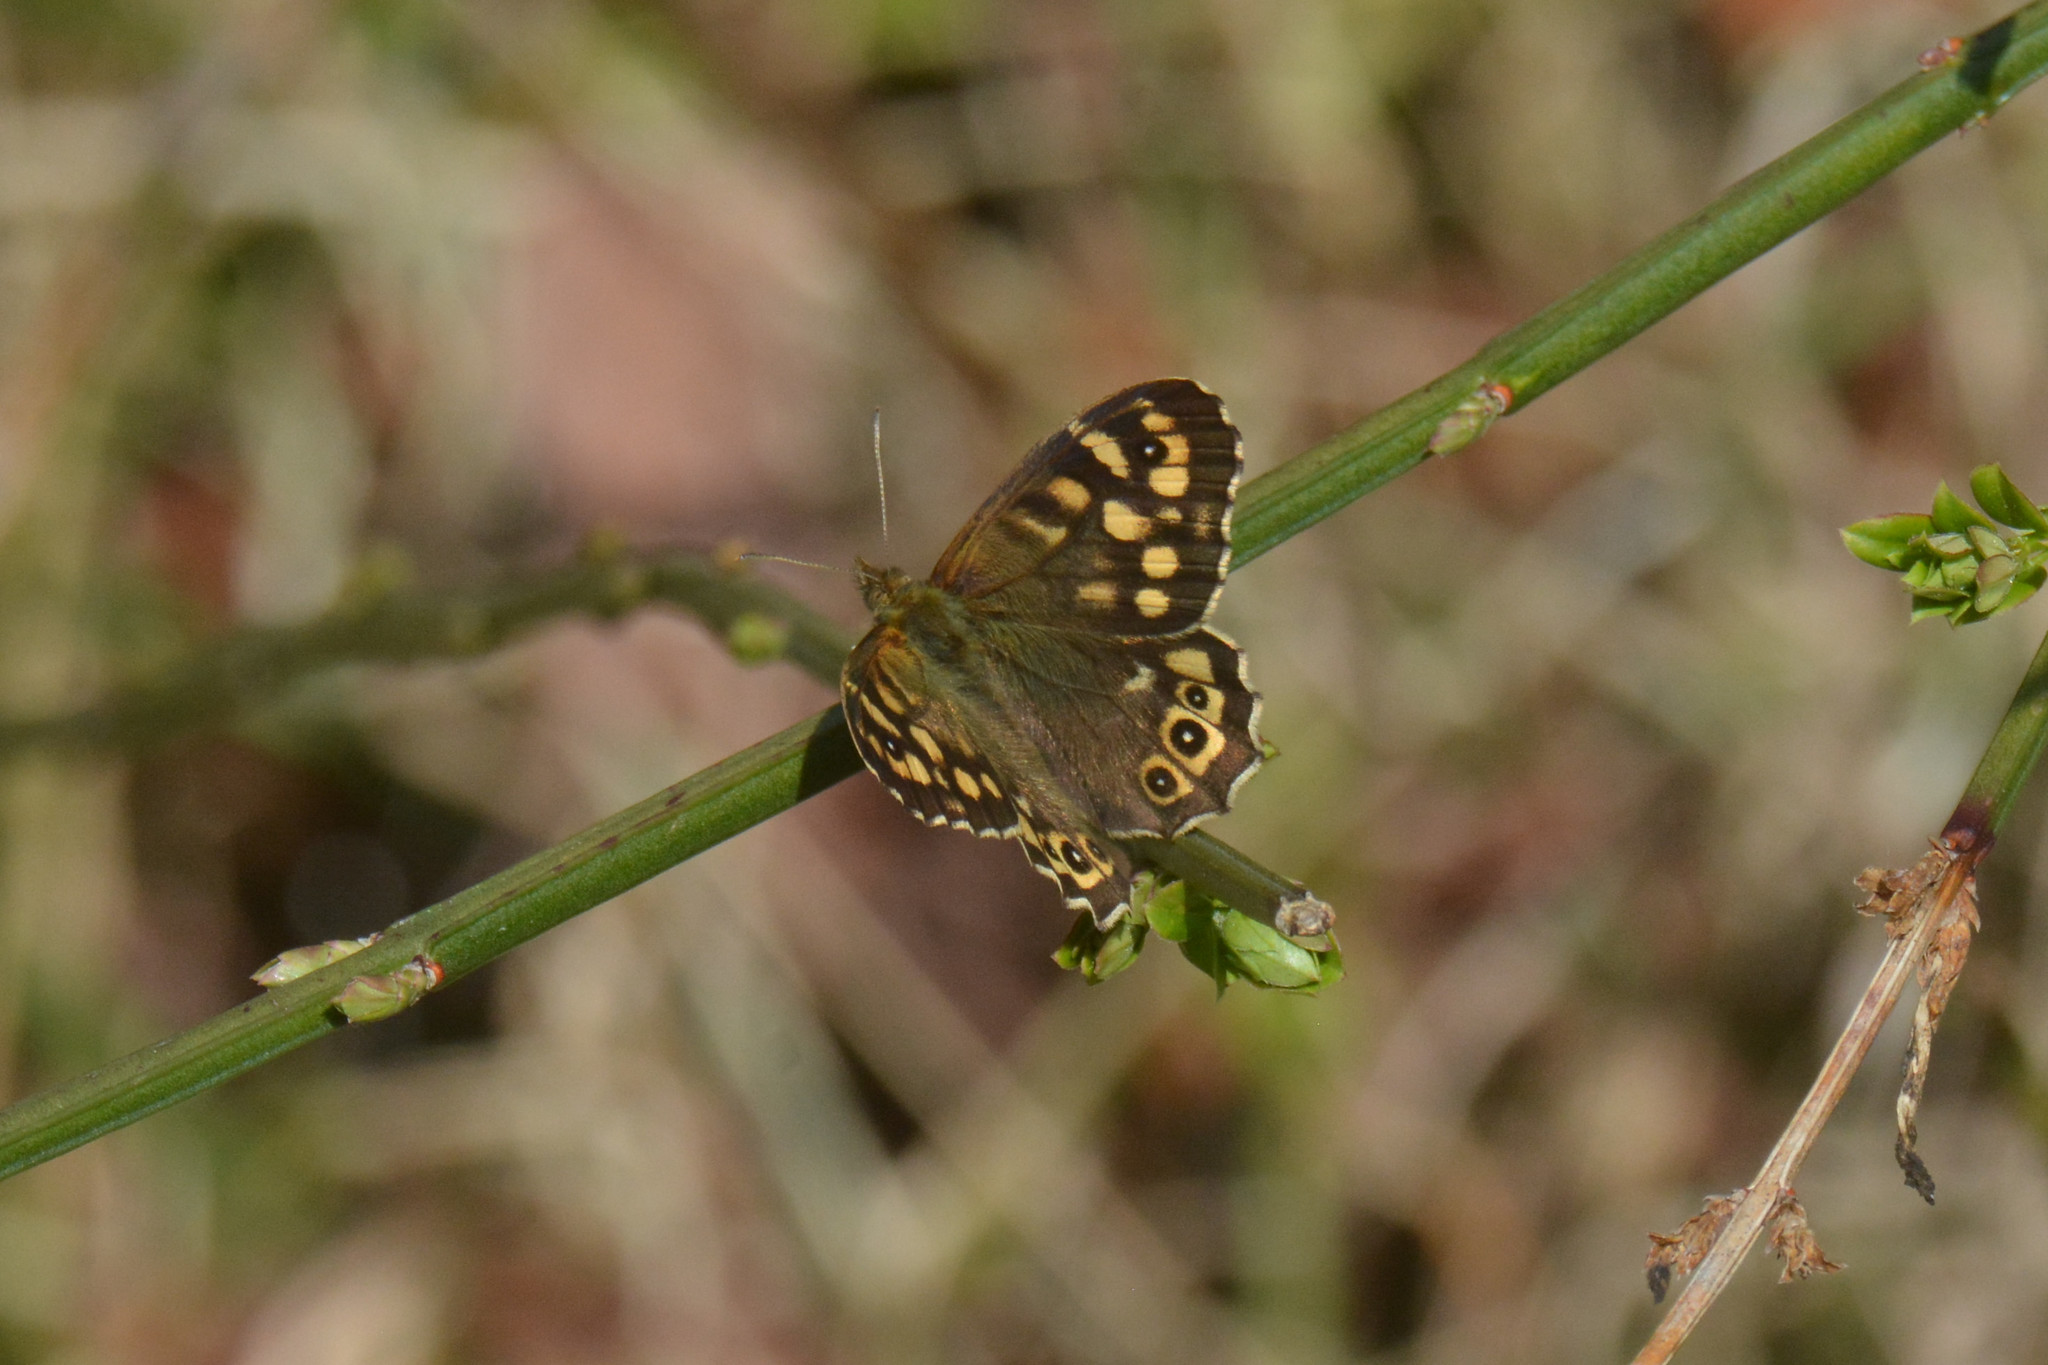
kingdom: Animalia
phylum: Arthropoda
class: Insecta
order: Lepidoptera
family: Nymphalidae
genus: Pararge
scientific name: Pararge aegeria
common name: Speckled wood
